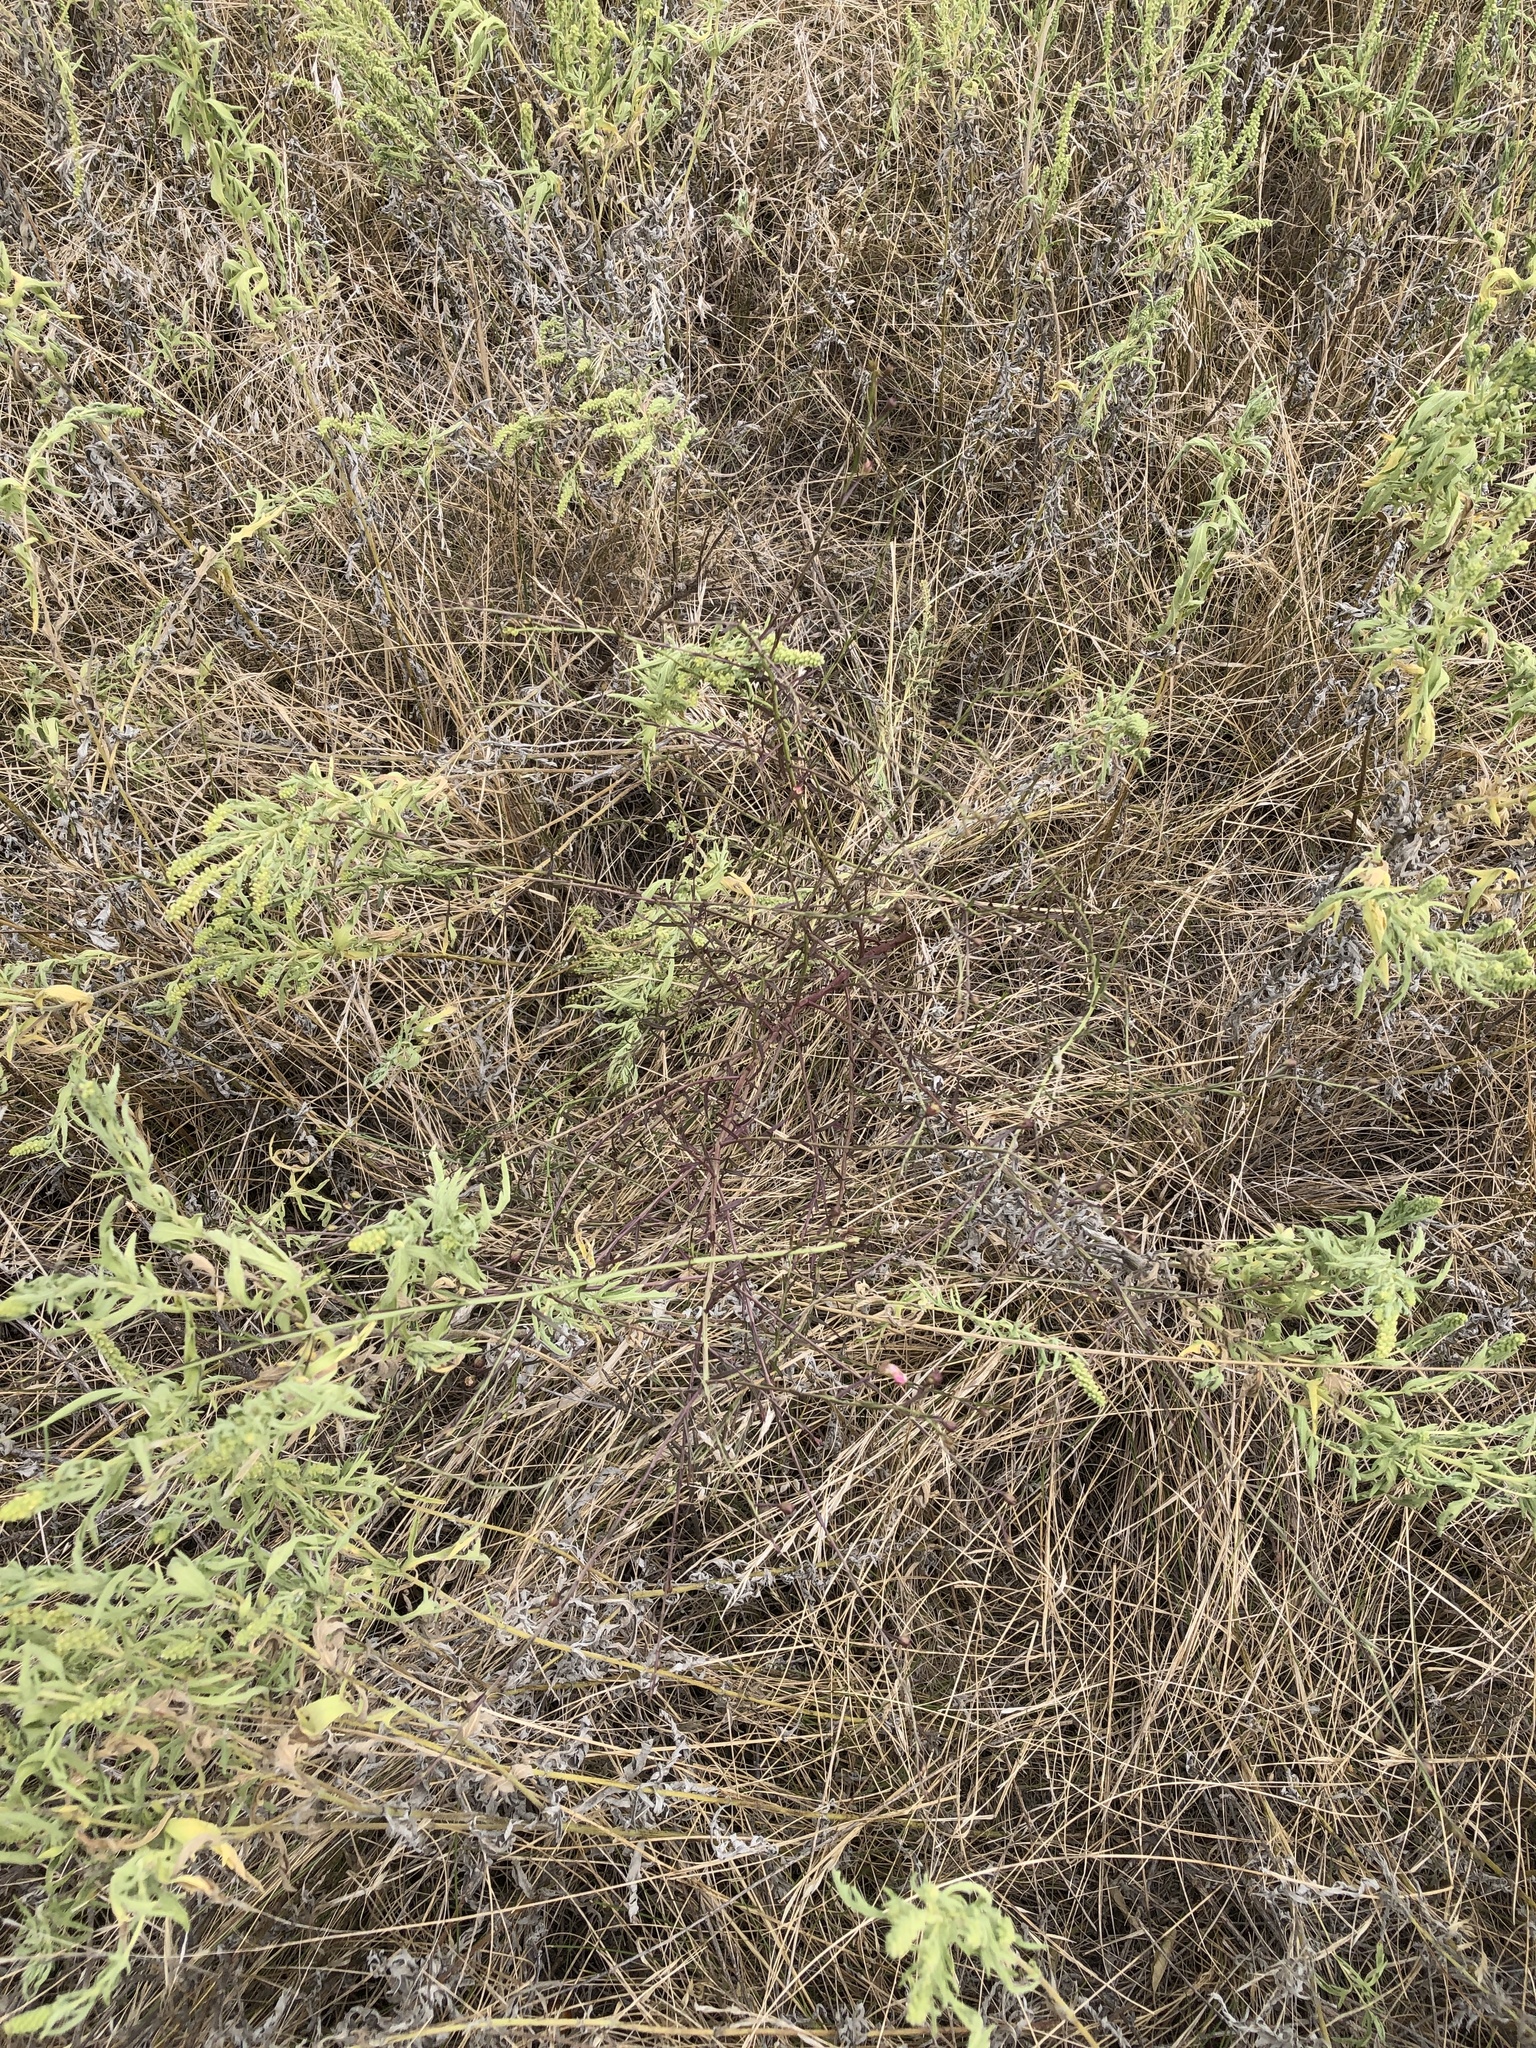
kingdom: Plantae
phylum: Tracheophyta
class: Magnoliopsida
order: Lamiales
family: Orobanchaceae
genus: Agalinis
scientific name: Agalinis strictifolia
